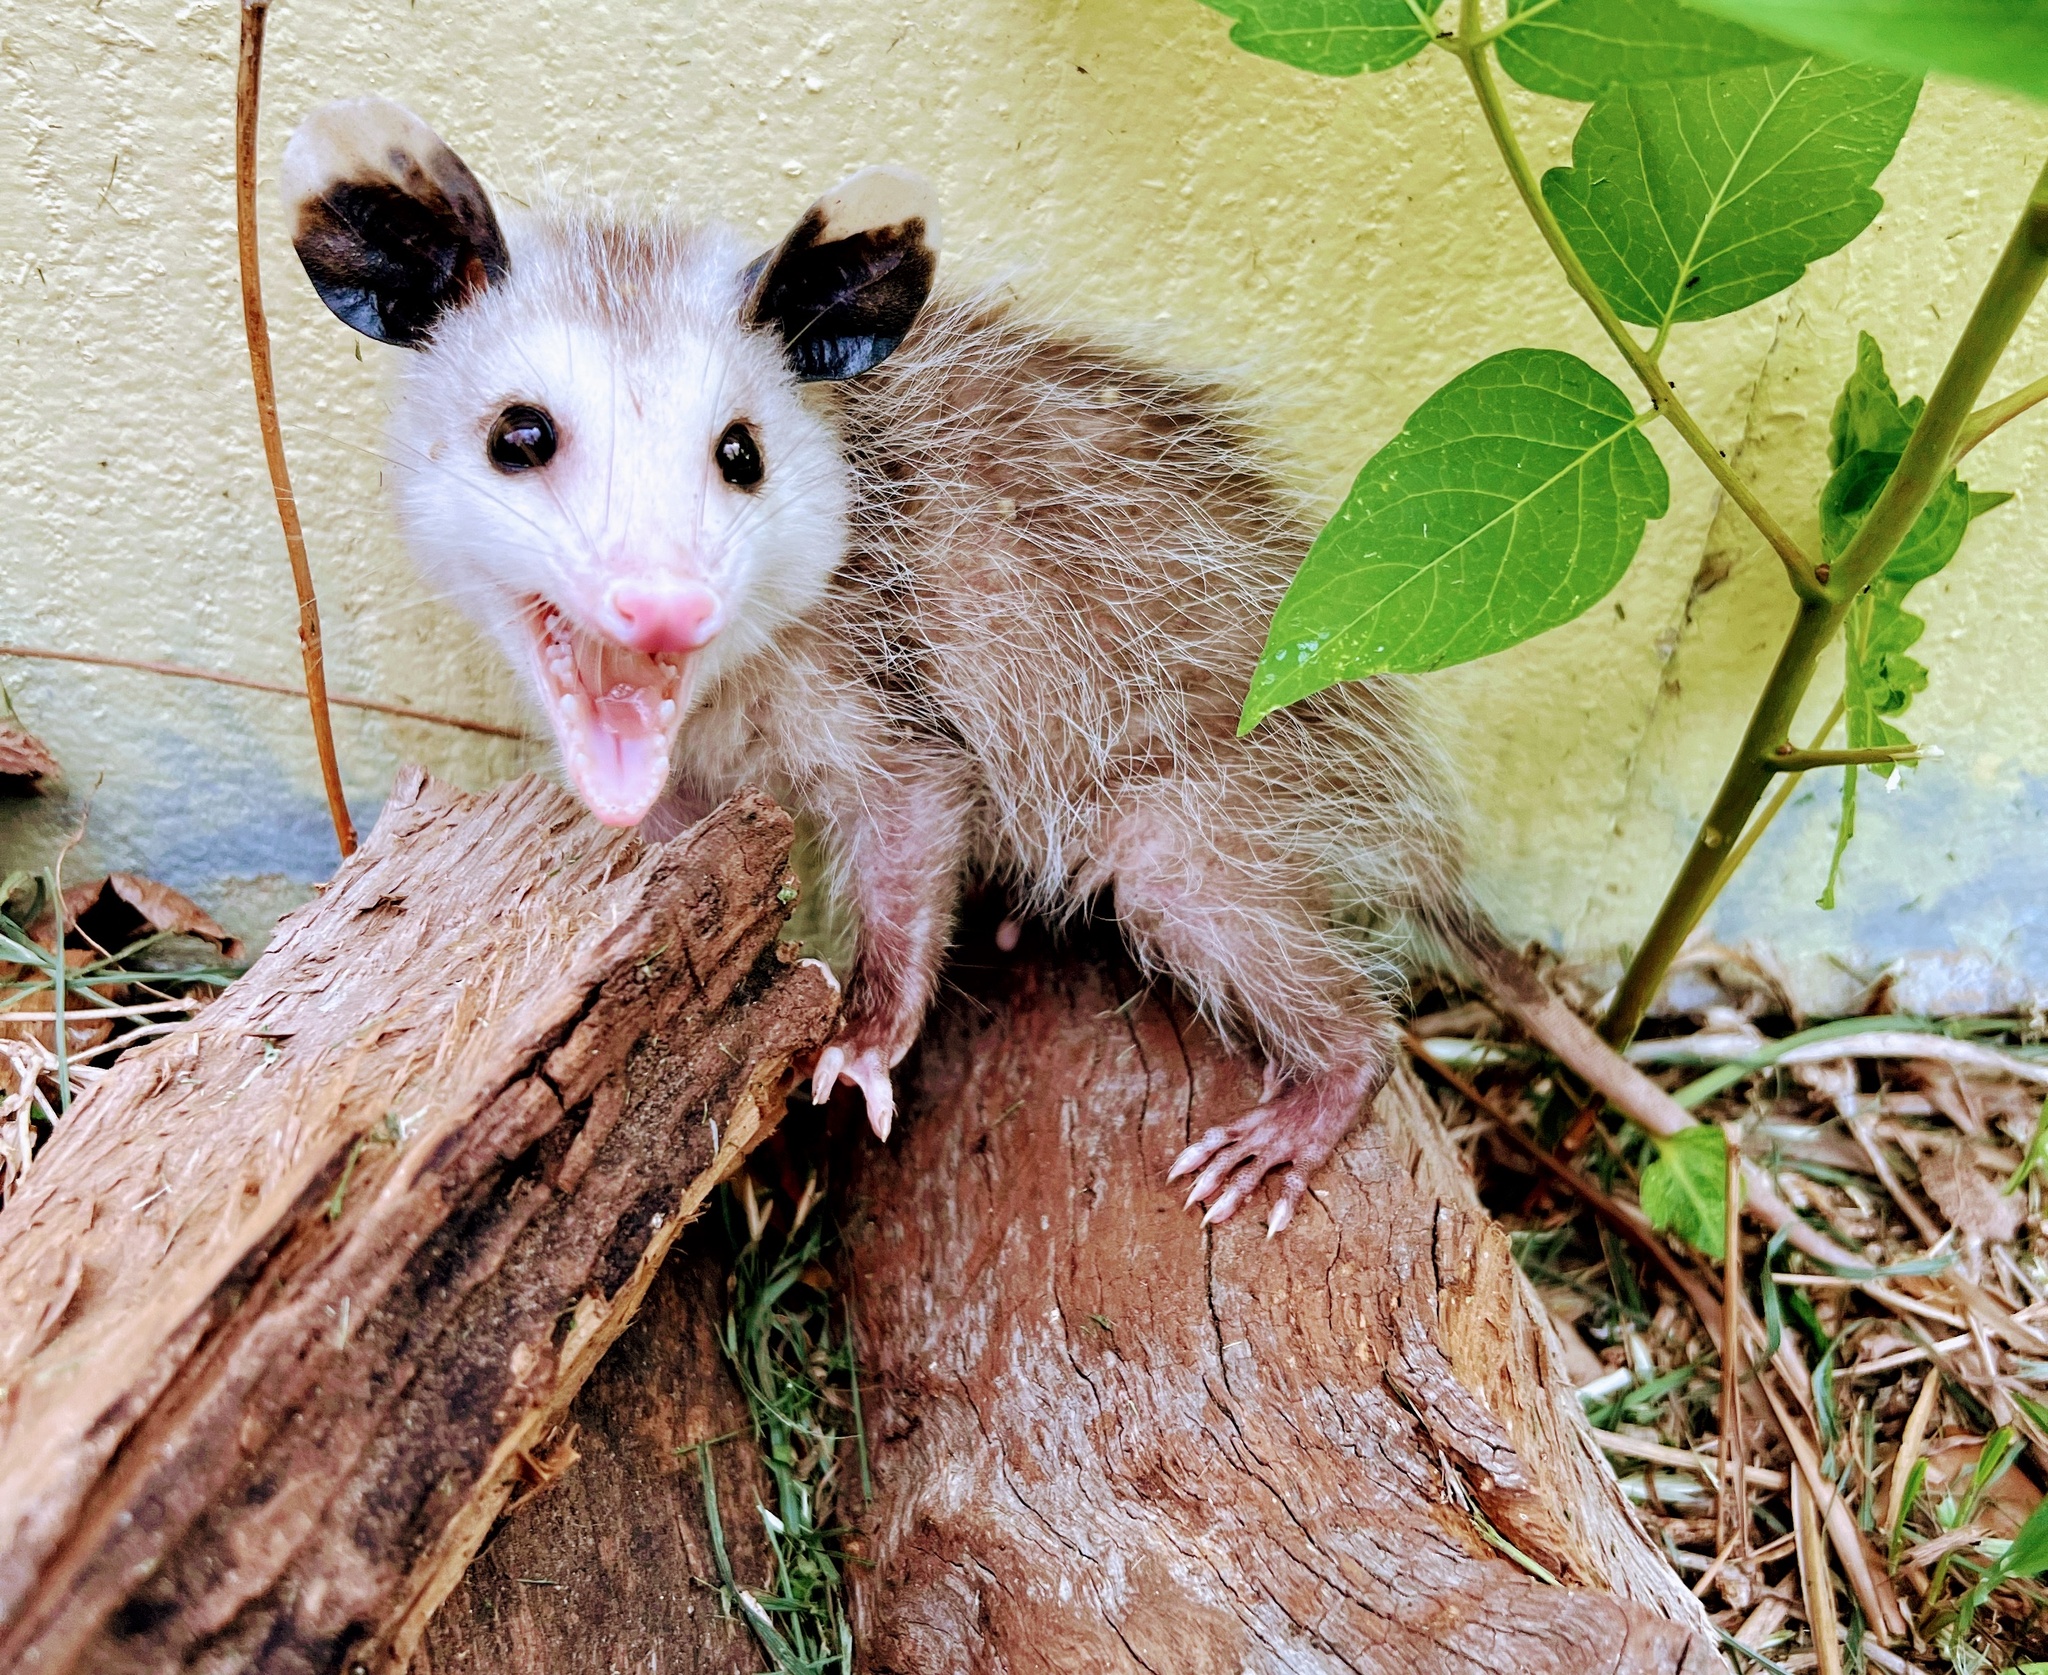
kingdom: Animalia
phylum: Chordata
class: Mammalia
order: Didelphimorphia
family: Didelphidae
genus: Didelphis
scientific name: Didelphis virginiana
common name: Virginia opossum
